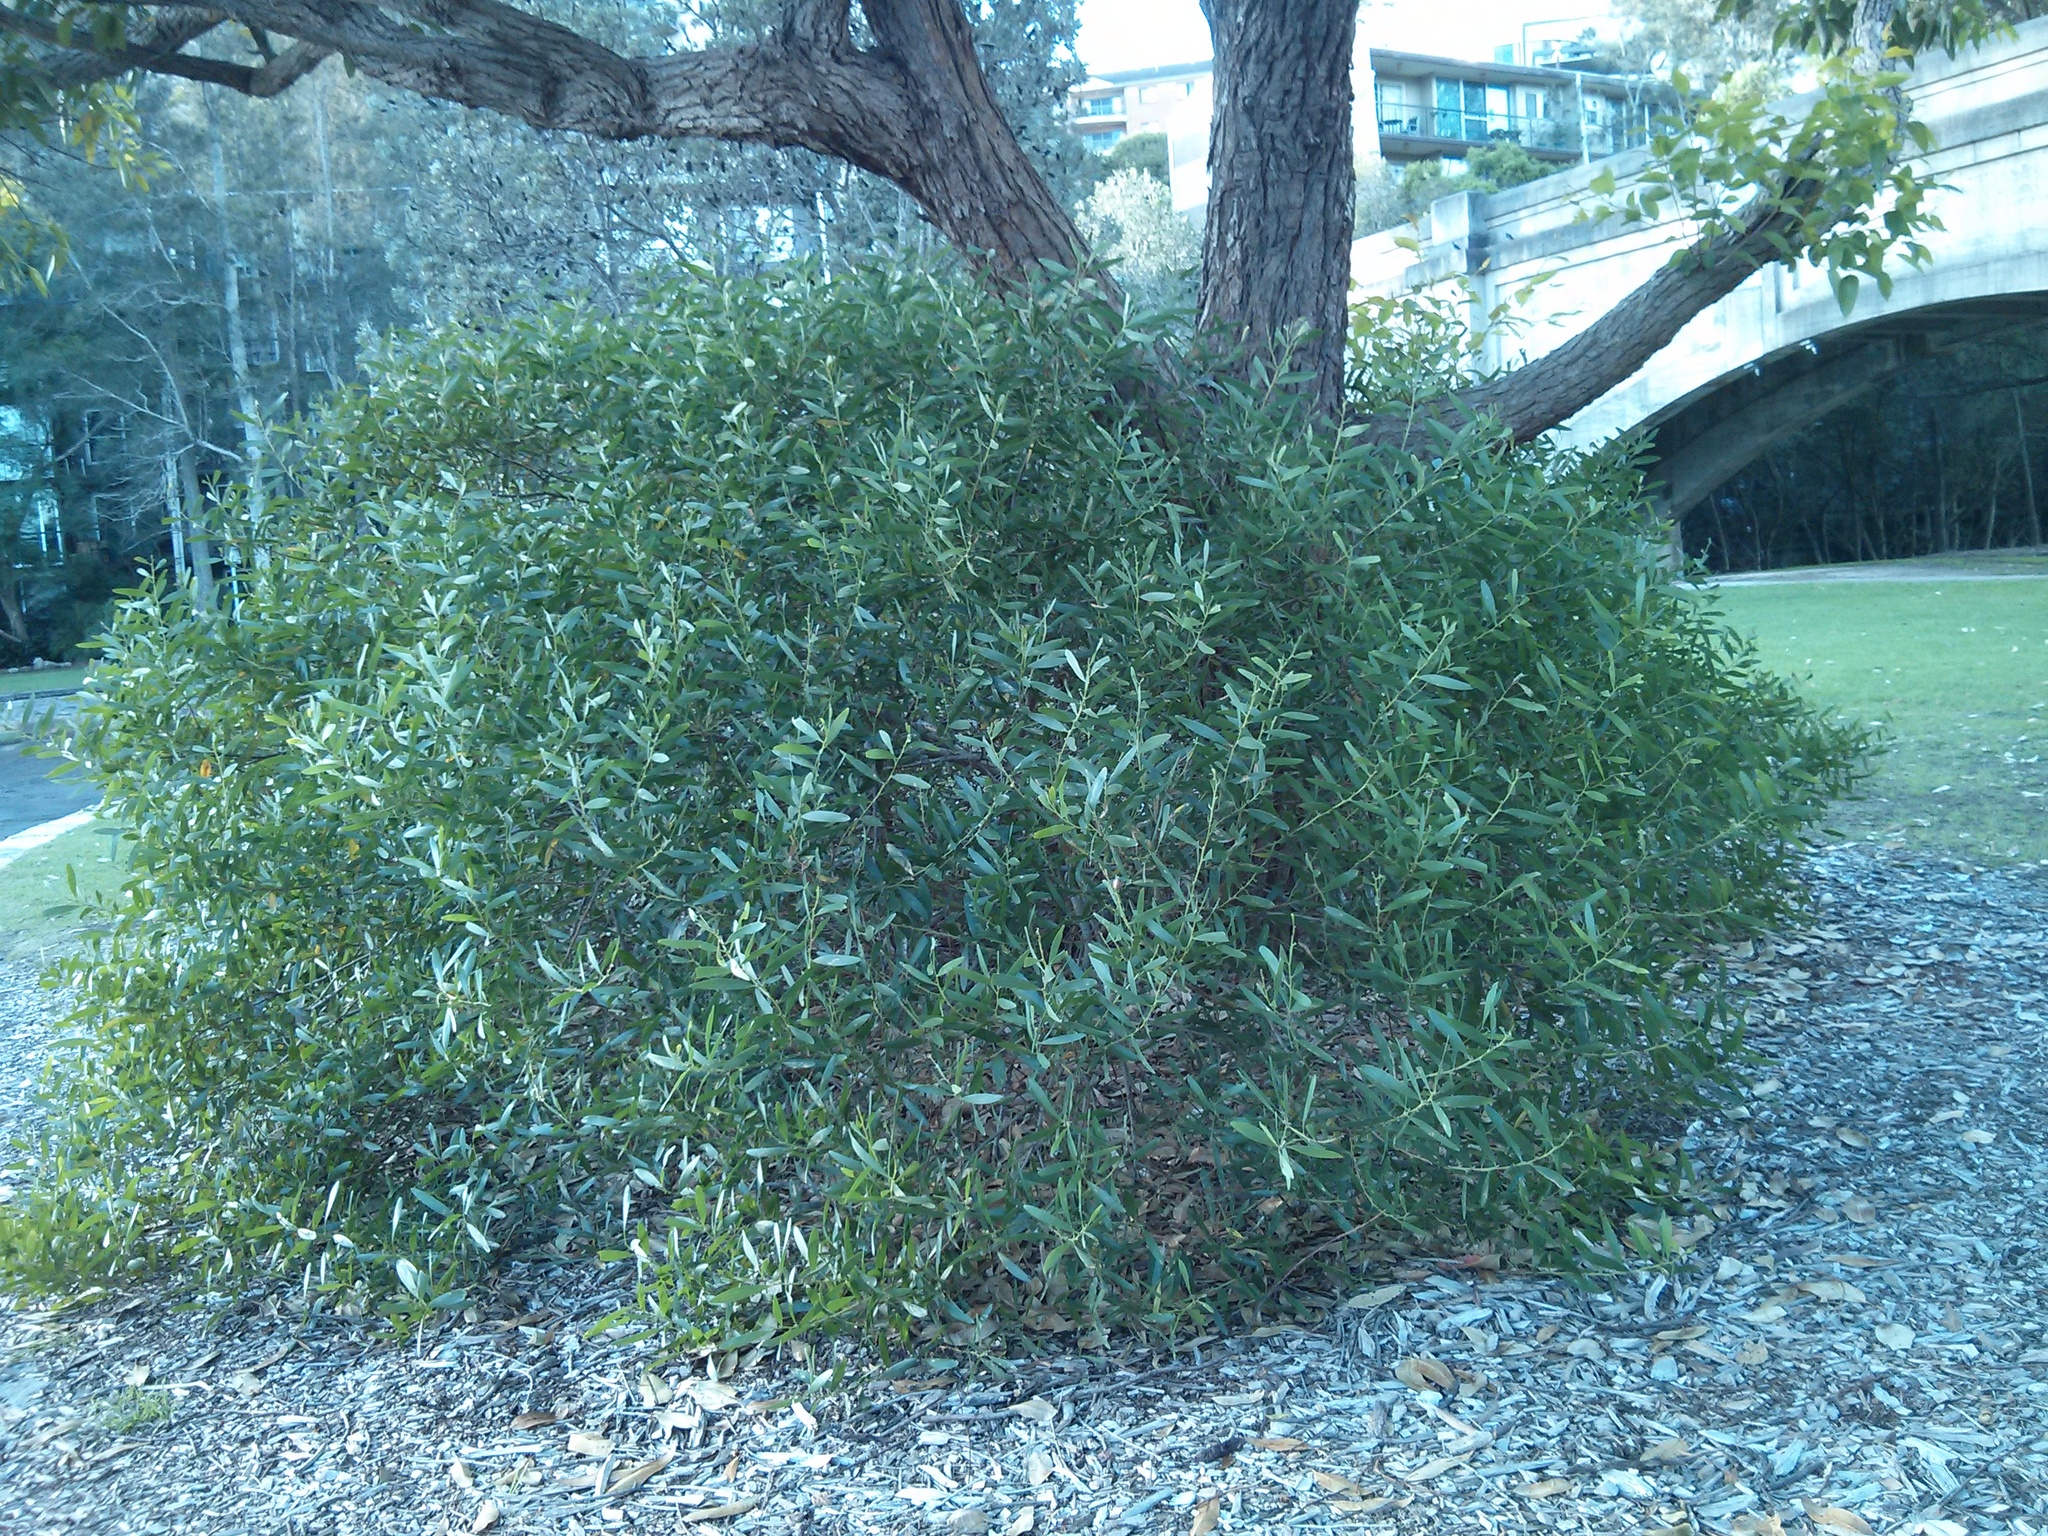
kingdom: Plantae
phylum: Tracheophyta
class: Magnoliopsida
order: Fabales
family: Fabaceae
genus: Acacia
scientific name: Acacia longifolia
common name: Sydney golden wattle
